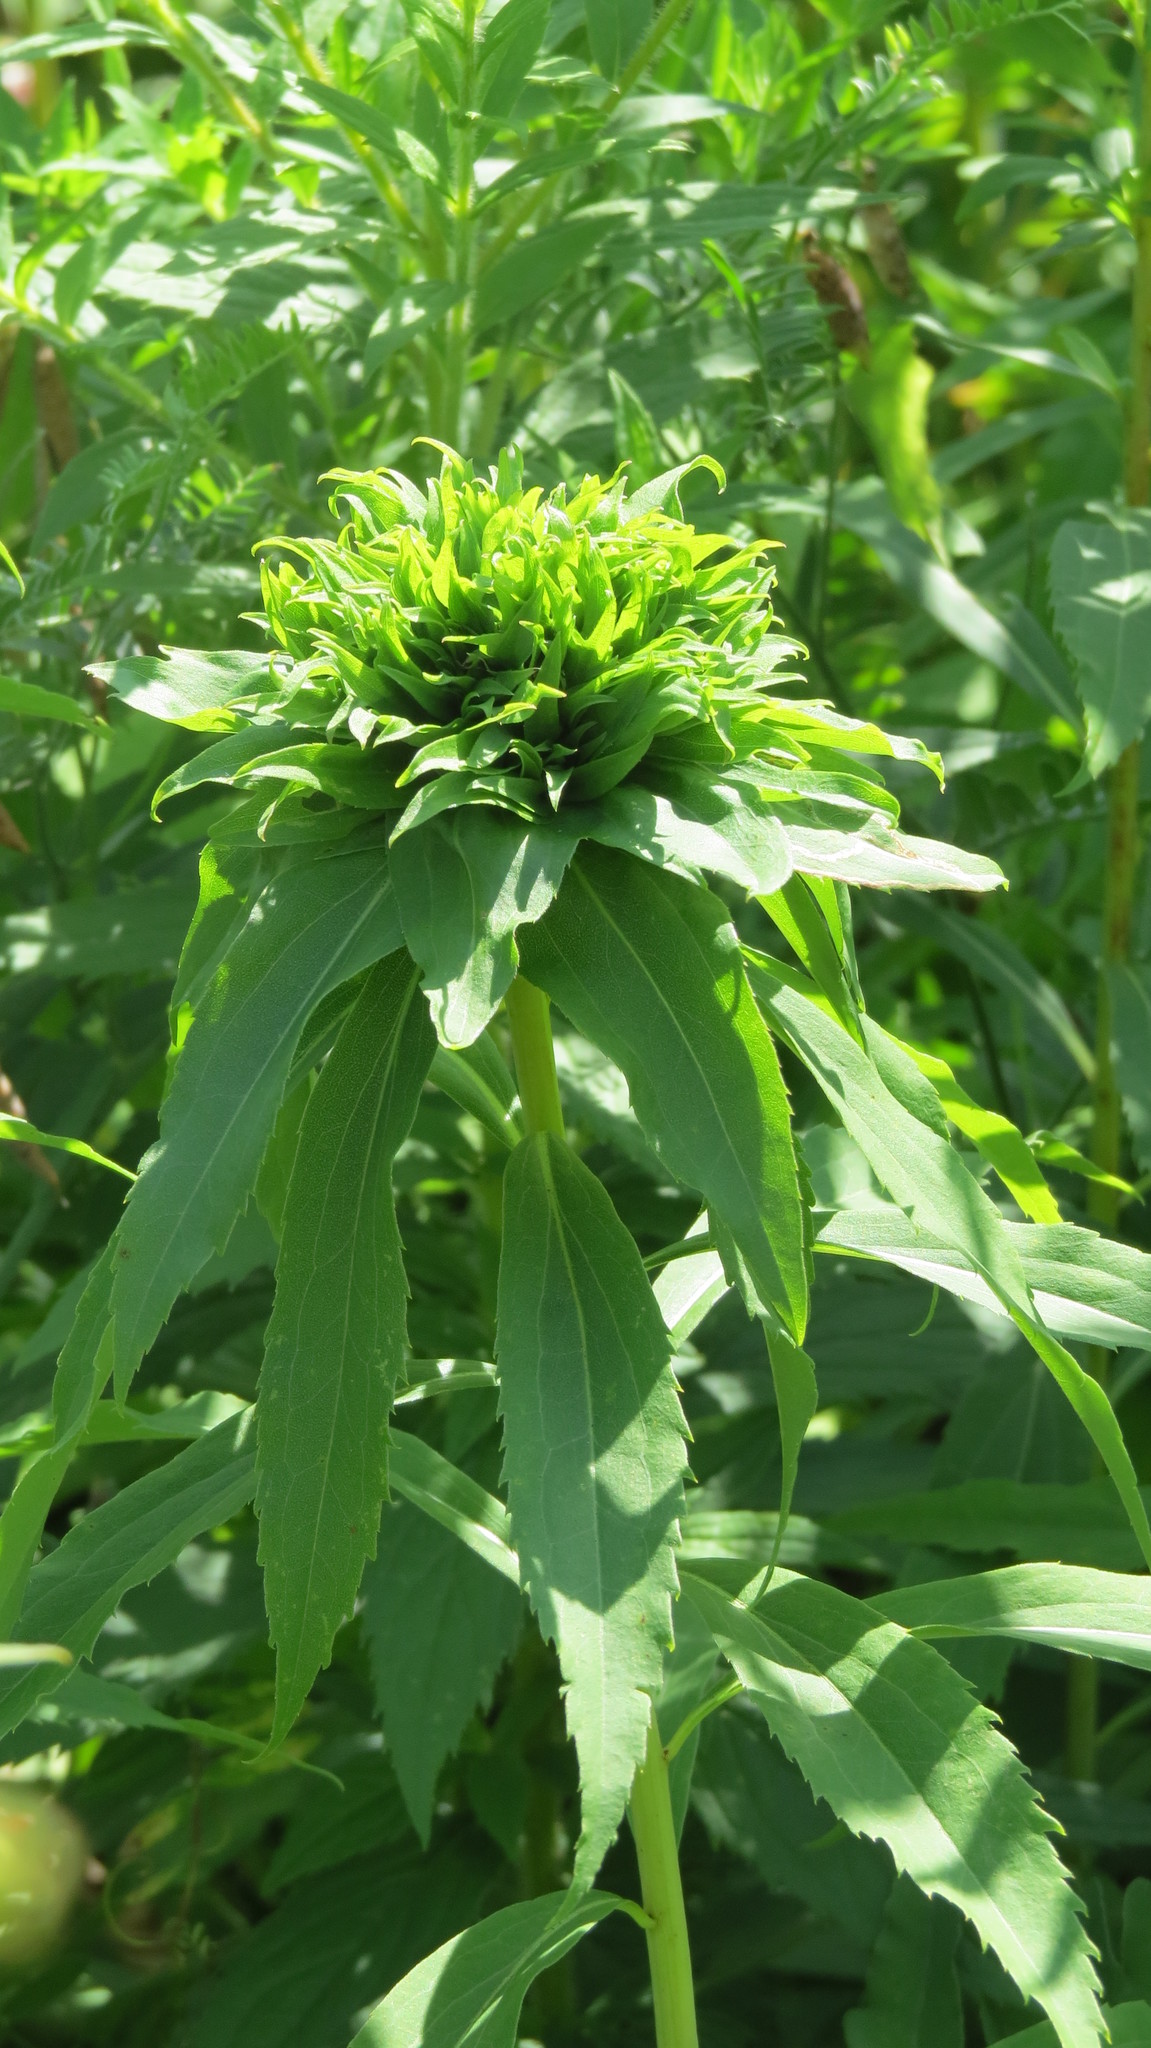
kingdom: Animalia
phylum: Arthropoda
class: Insecta
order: Diptera
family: Cecidomyiidae
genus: Rhopalomyia
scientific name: Rhopalomyia capitata
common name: Giant goldenrod bunch gall midge
